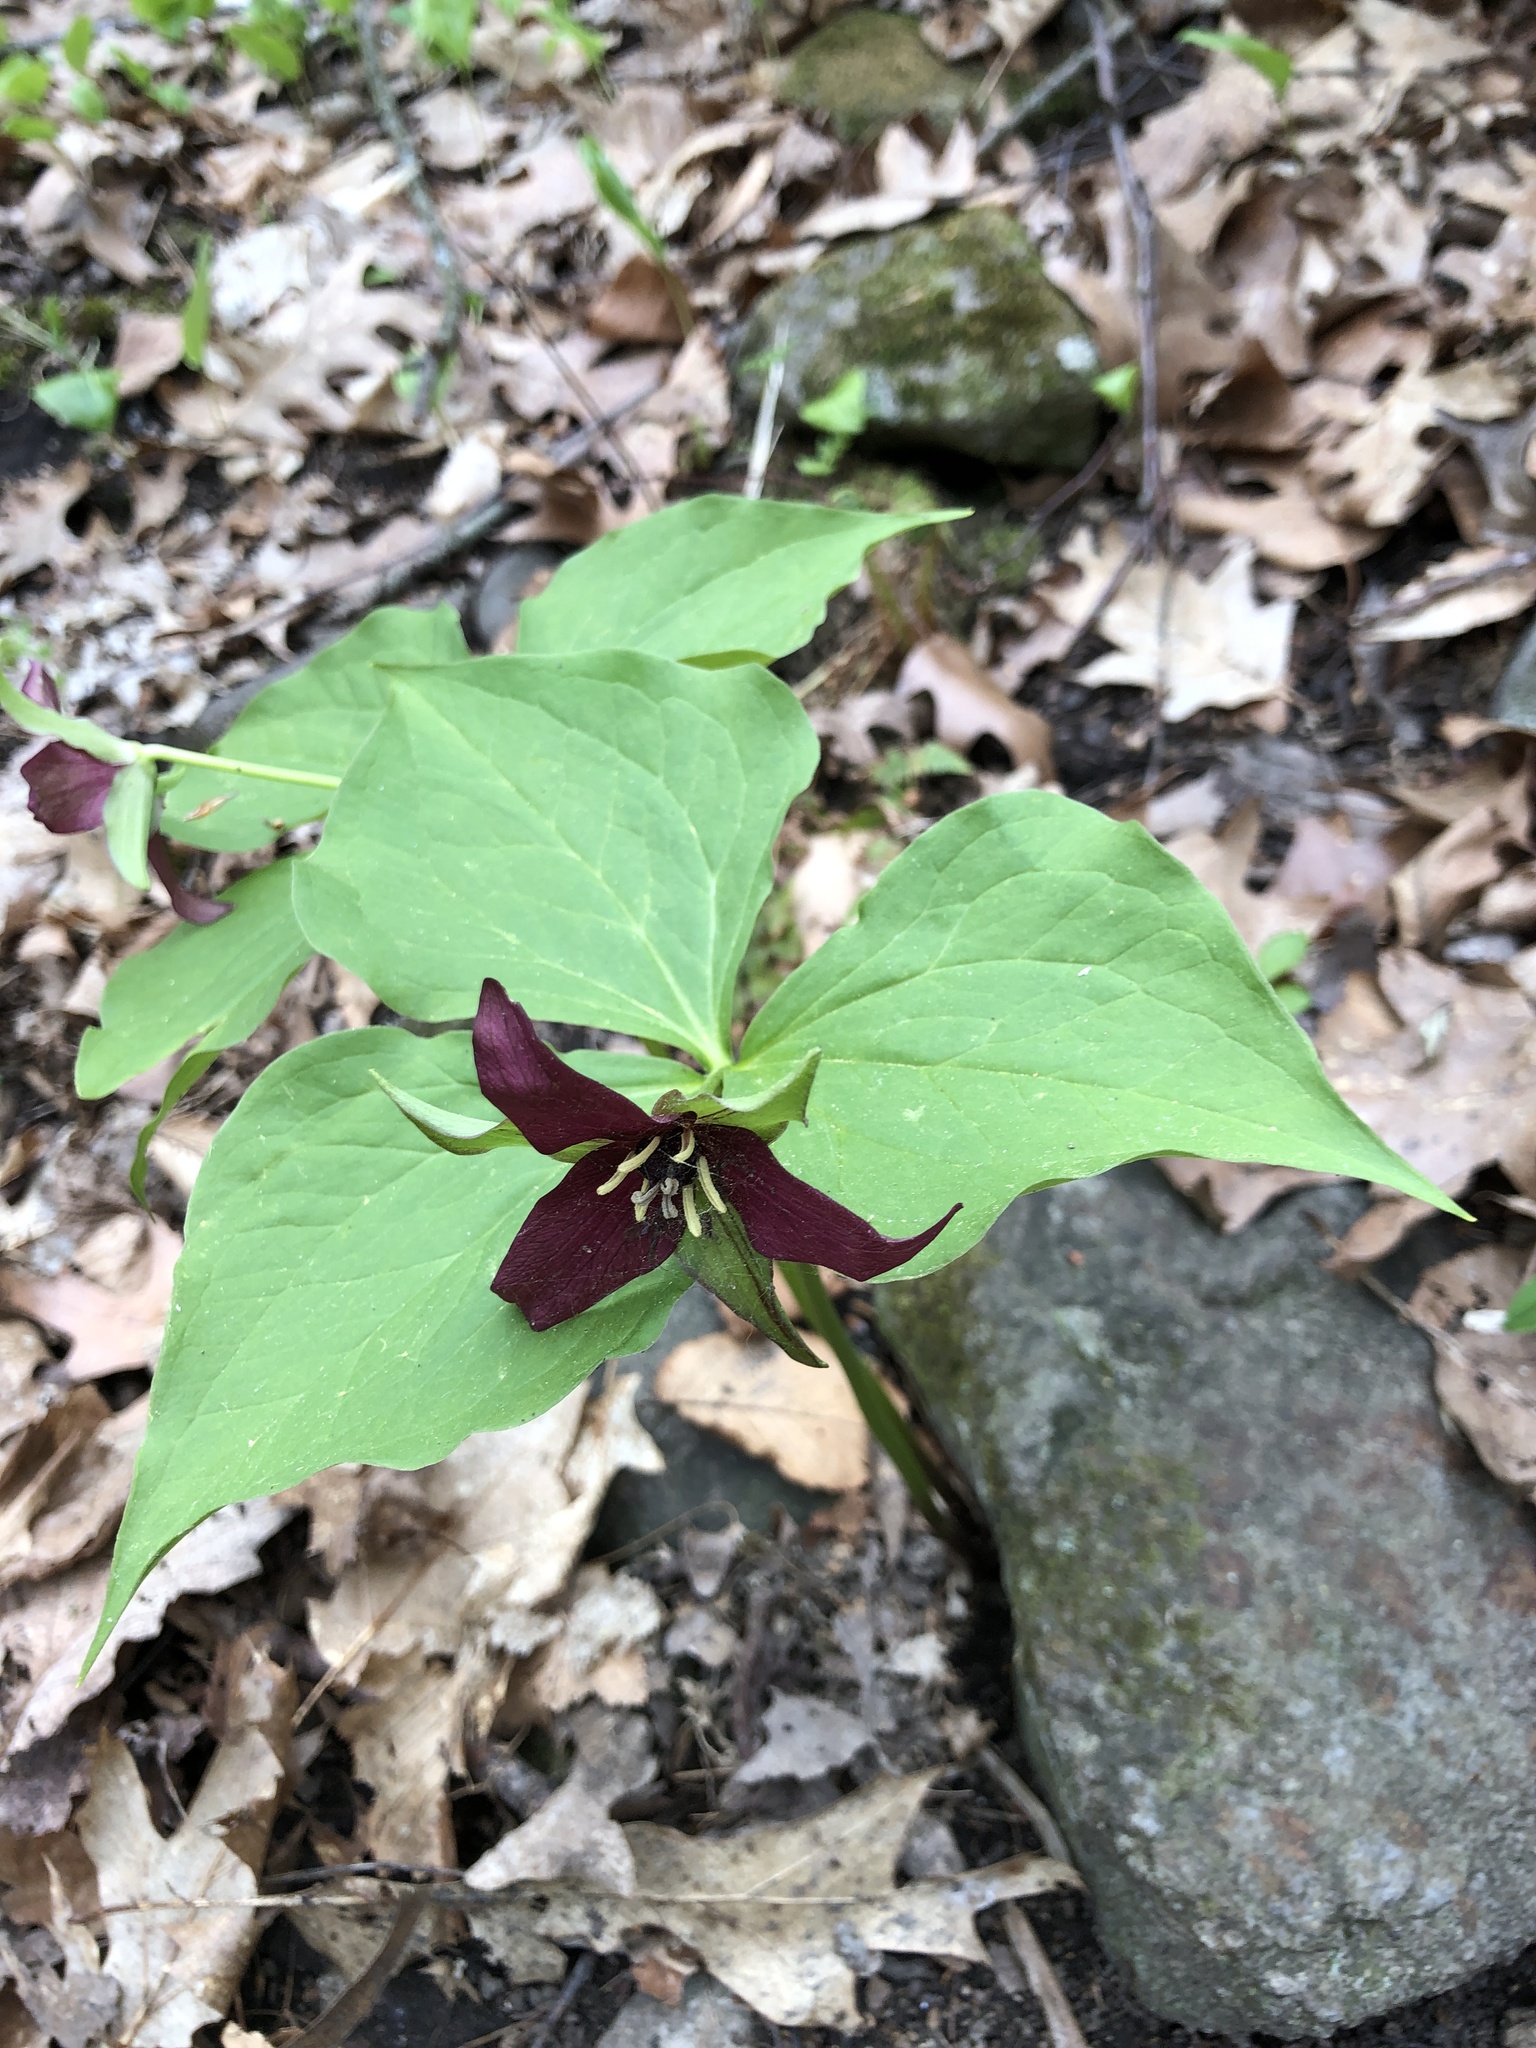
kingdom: Plantae
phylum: Tracheophyta
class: Liliopsida
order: Liliales
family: Melanthiaceae
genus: Trillium
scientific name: Trillium erectum
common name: Purple trillium
